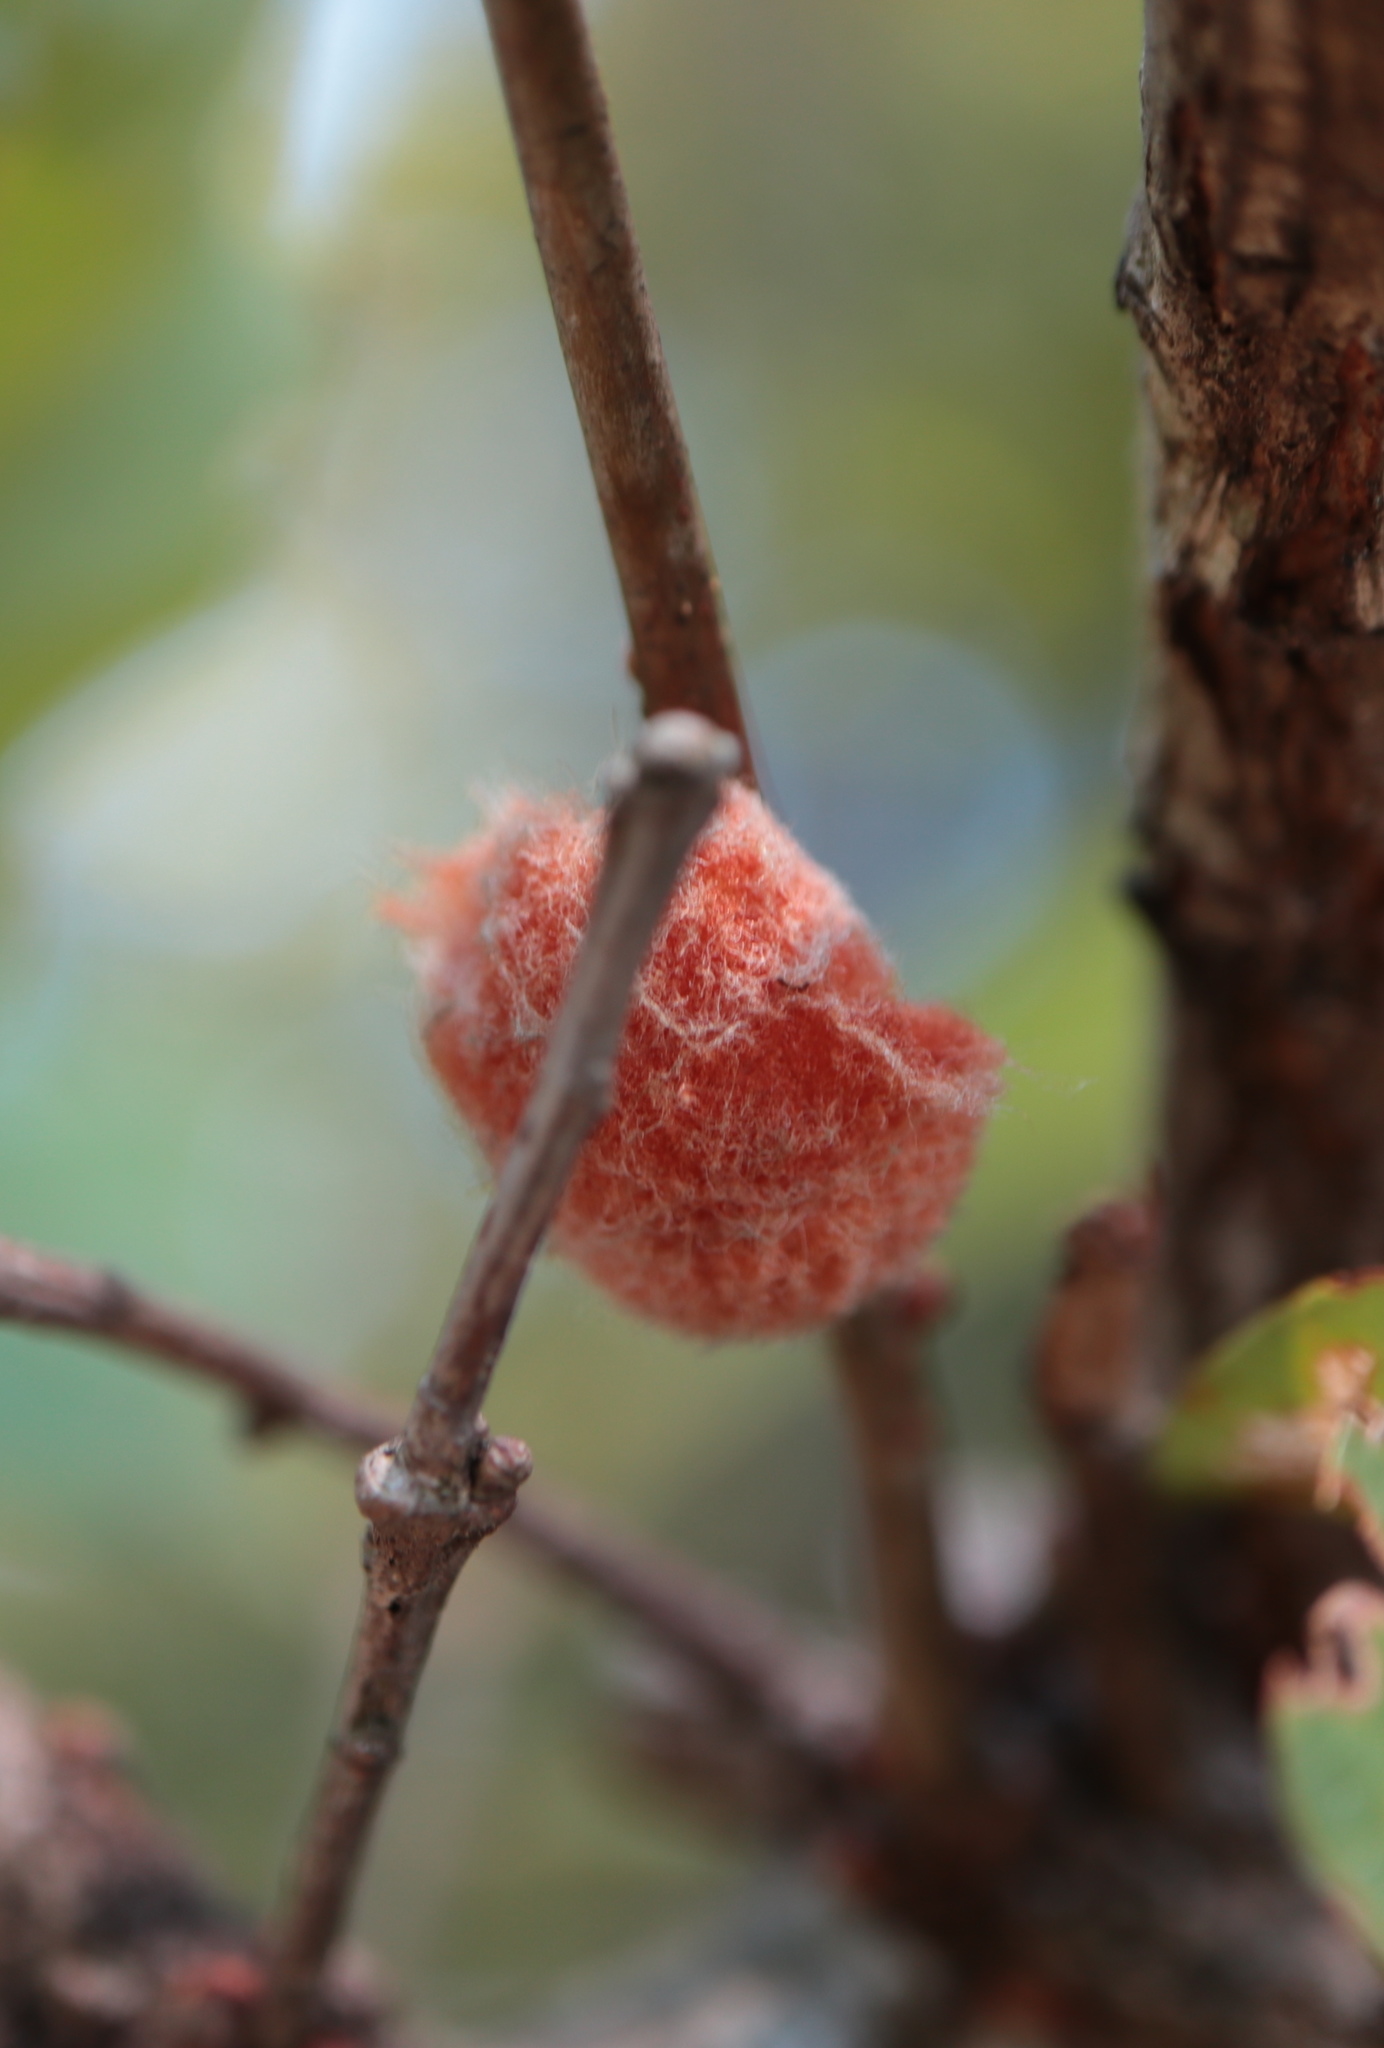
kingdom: Animalia
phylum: Arthropoda
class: Insecta
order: Hymenoptera
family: Cynipidae
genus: Andricus
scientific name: Andricus quercusflocci
